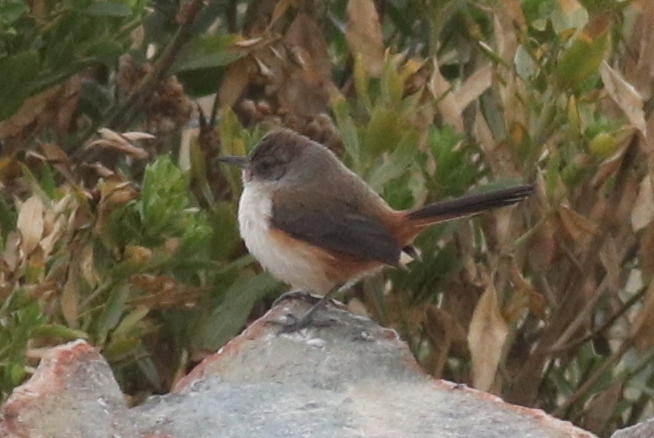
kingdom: Animalia
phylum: Chordata
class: Aves
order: Passeriformes
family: Furnariidae
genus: Asthenes
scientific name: Asthenes dorbignyi
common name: Rusty-vented canastero
